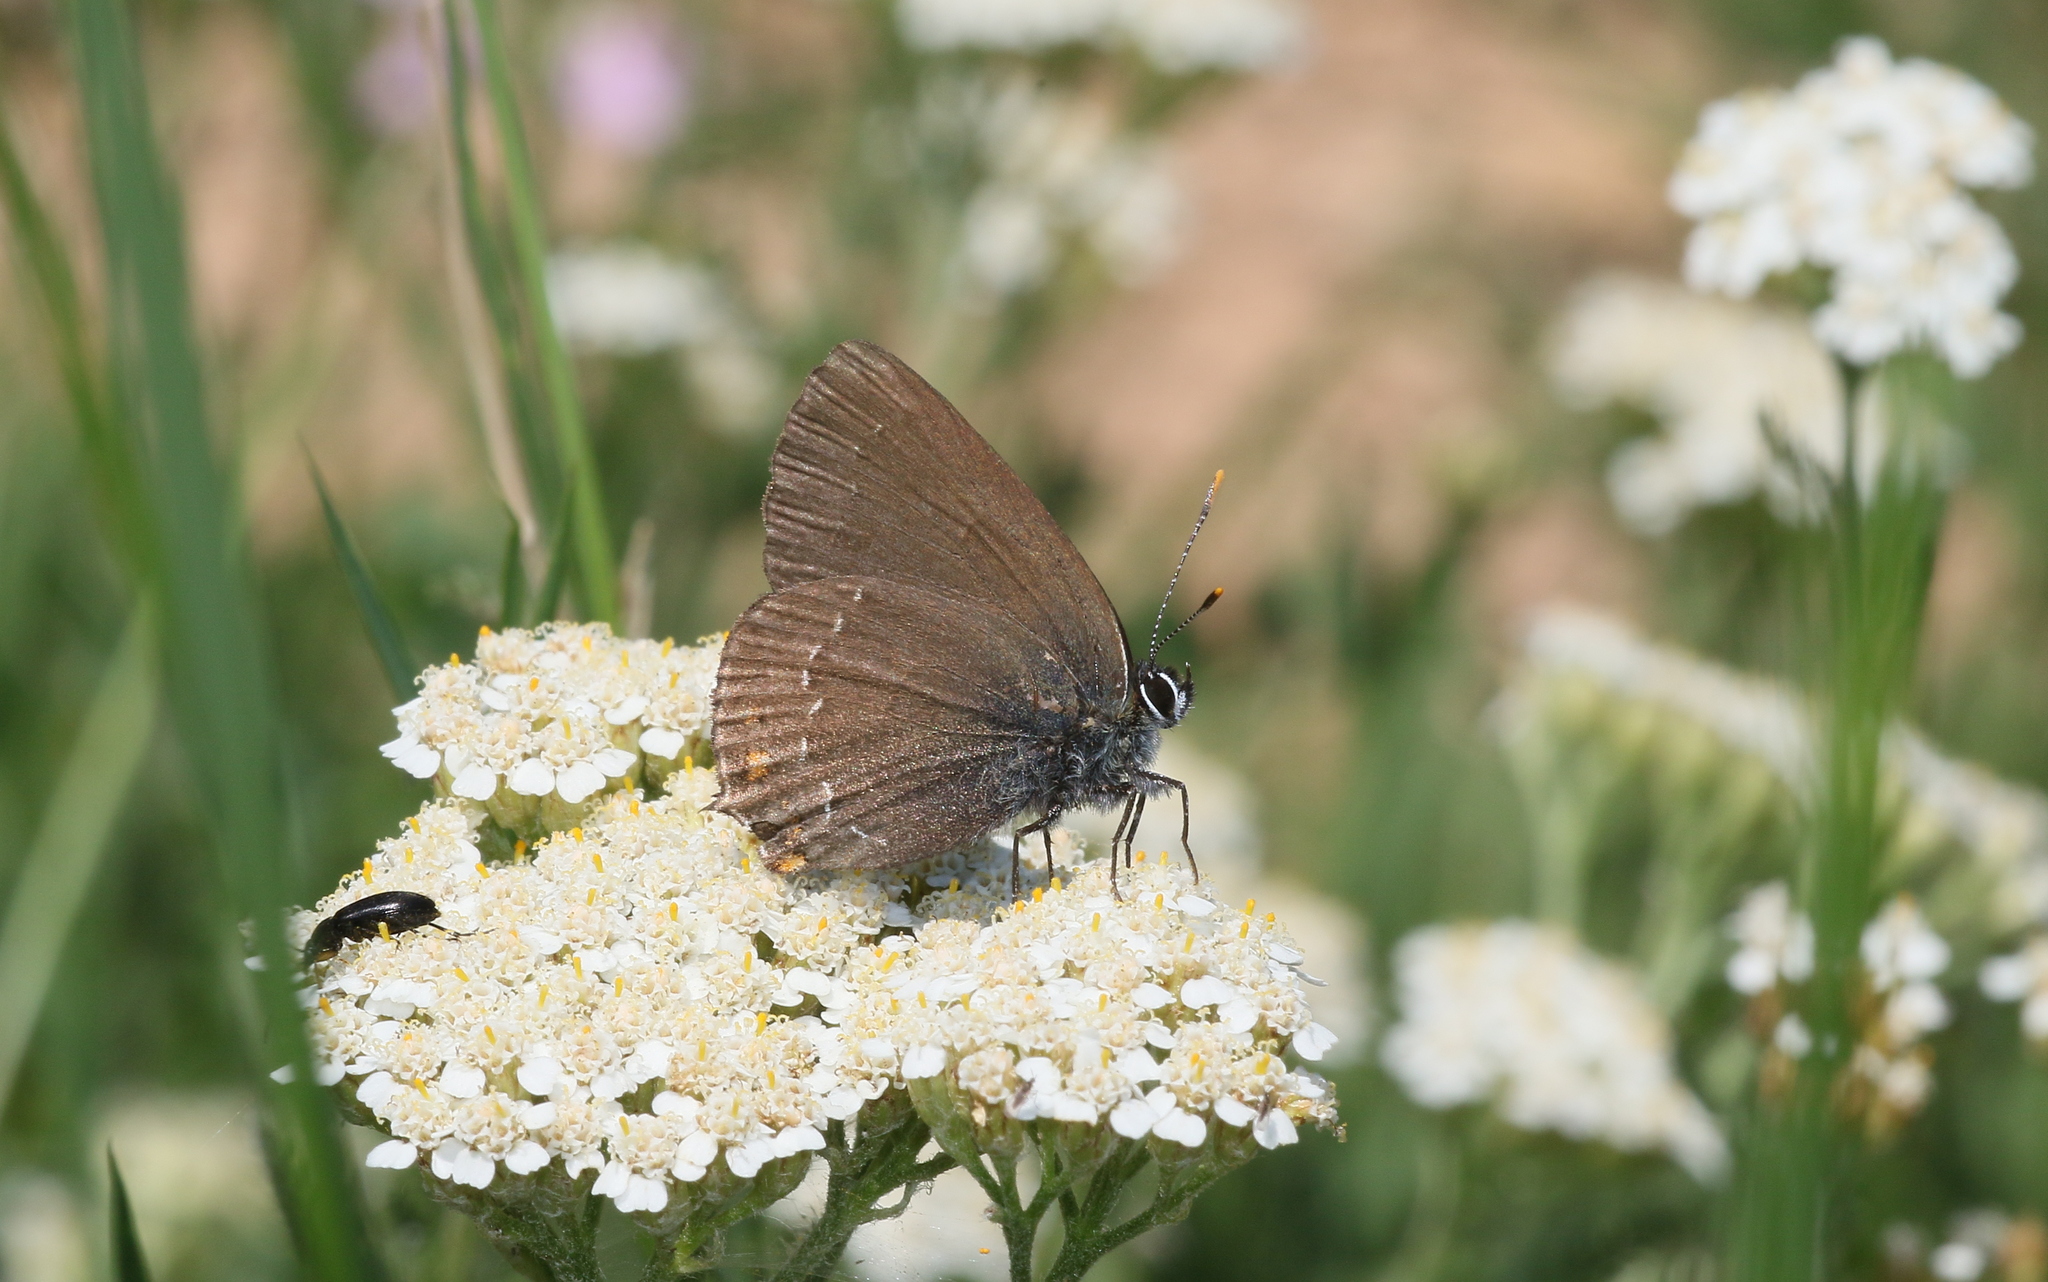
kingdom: Animalia
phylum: Arthropoda
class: Insecta
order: Lepidoptera
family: Lycaenidae
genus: Nordmannia
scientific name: Nordmannia ilicis
